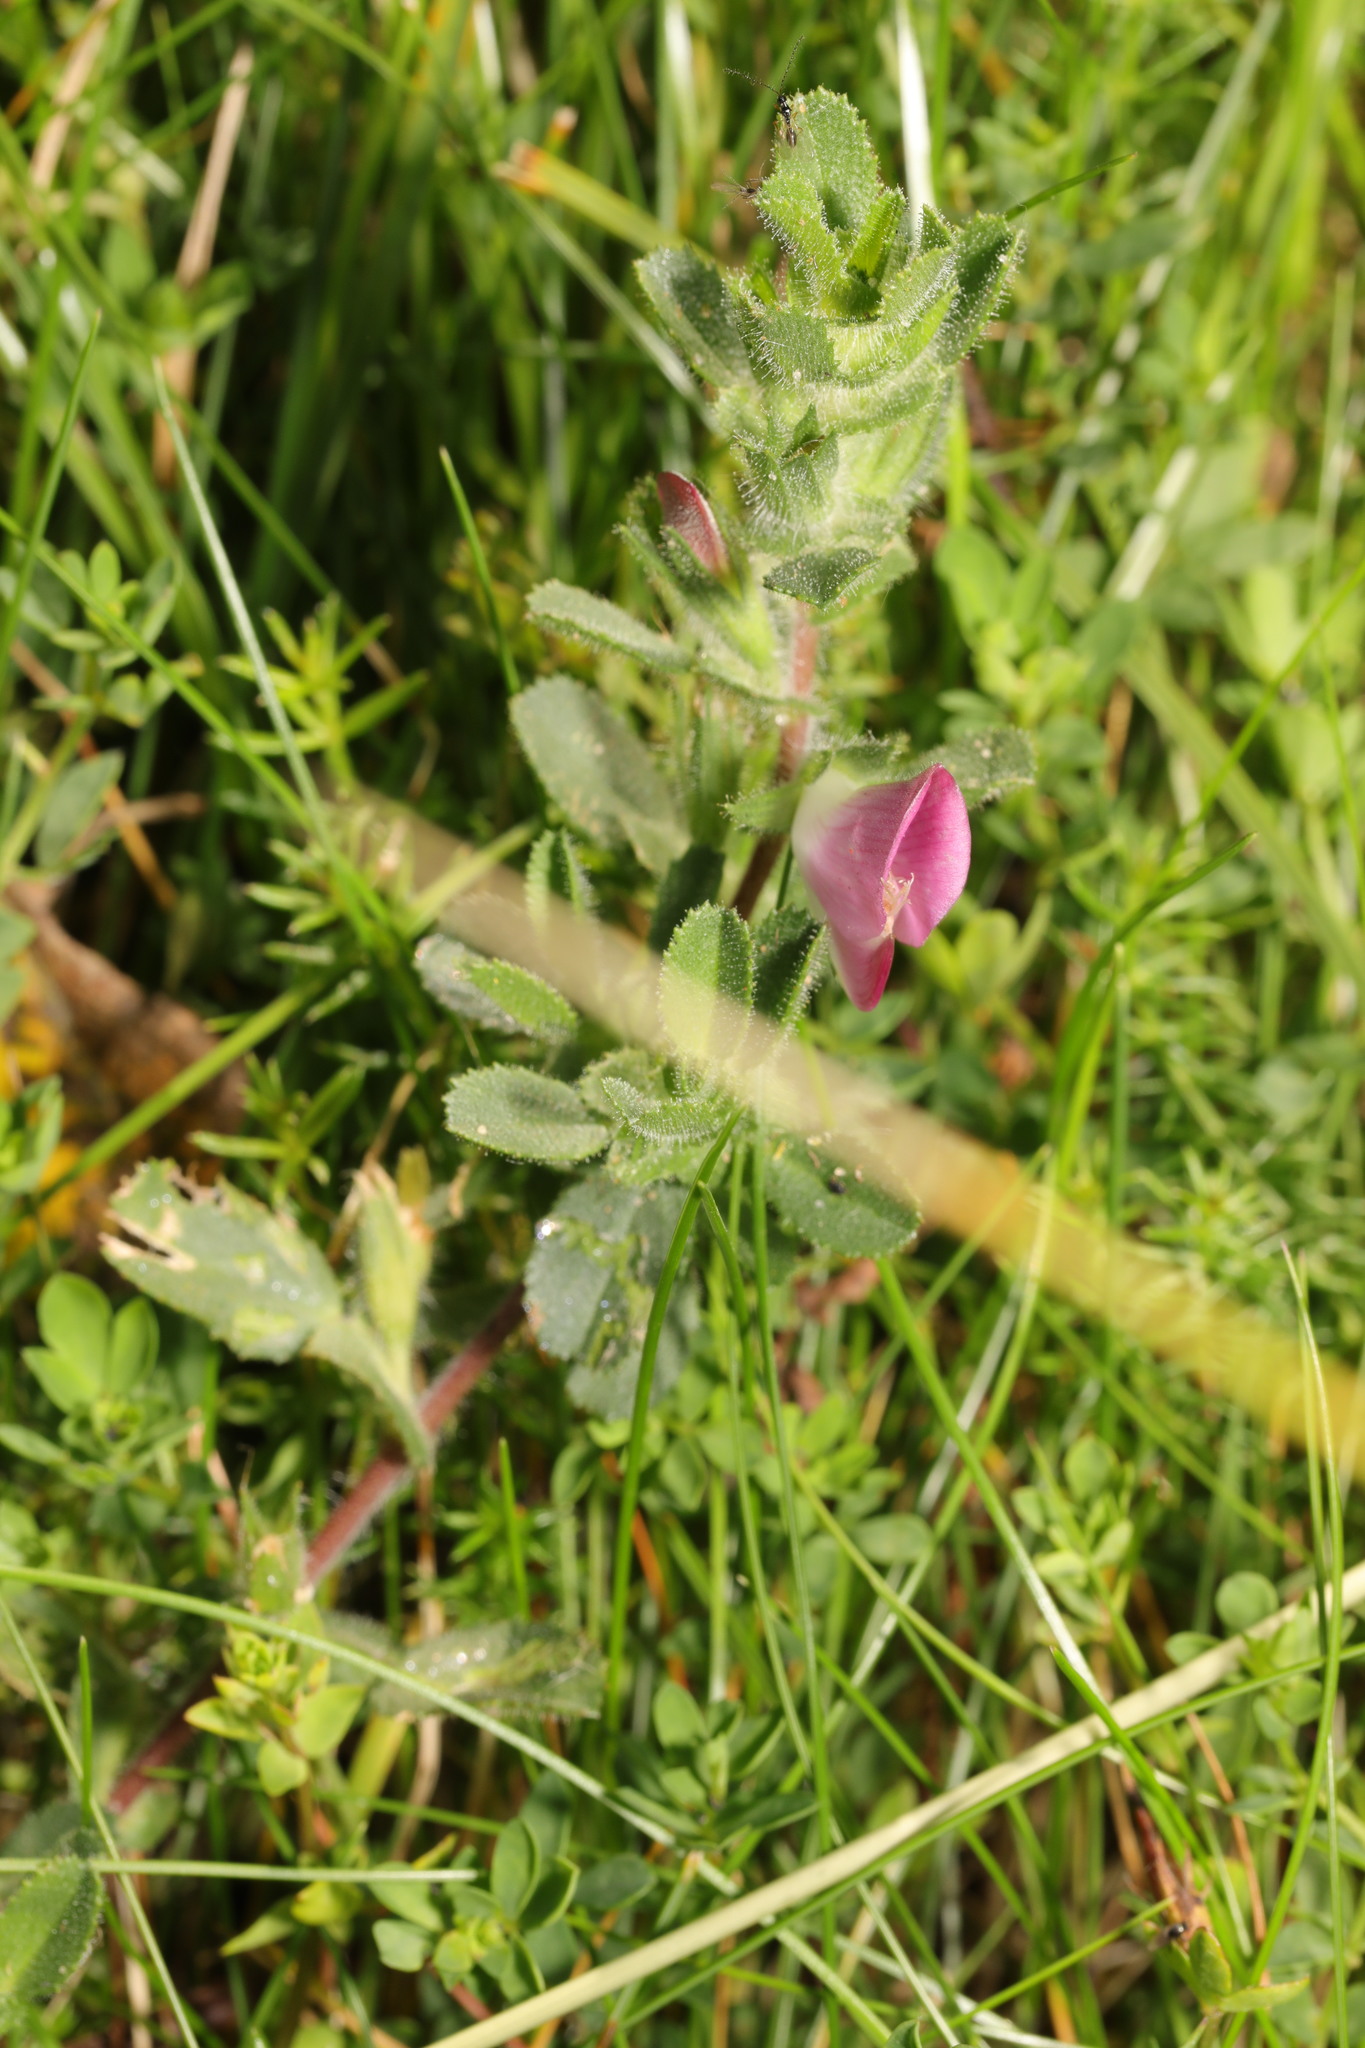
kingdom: Plantae
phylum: Tracheophyta
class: Magnoliopsida
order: Fabales
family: Fabaceae
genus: Ononis
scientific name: Ononis spinosa
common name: Spiny restharrow
